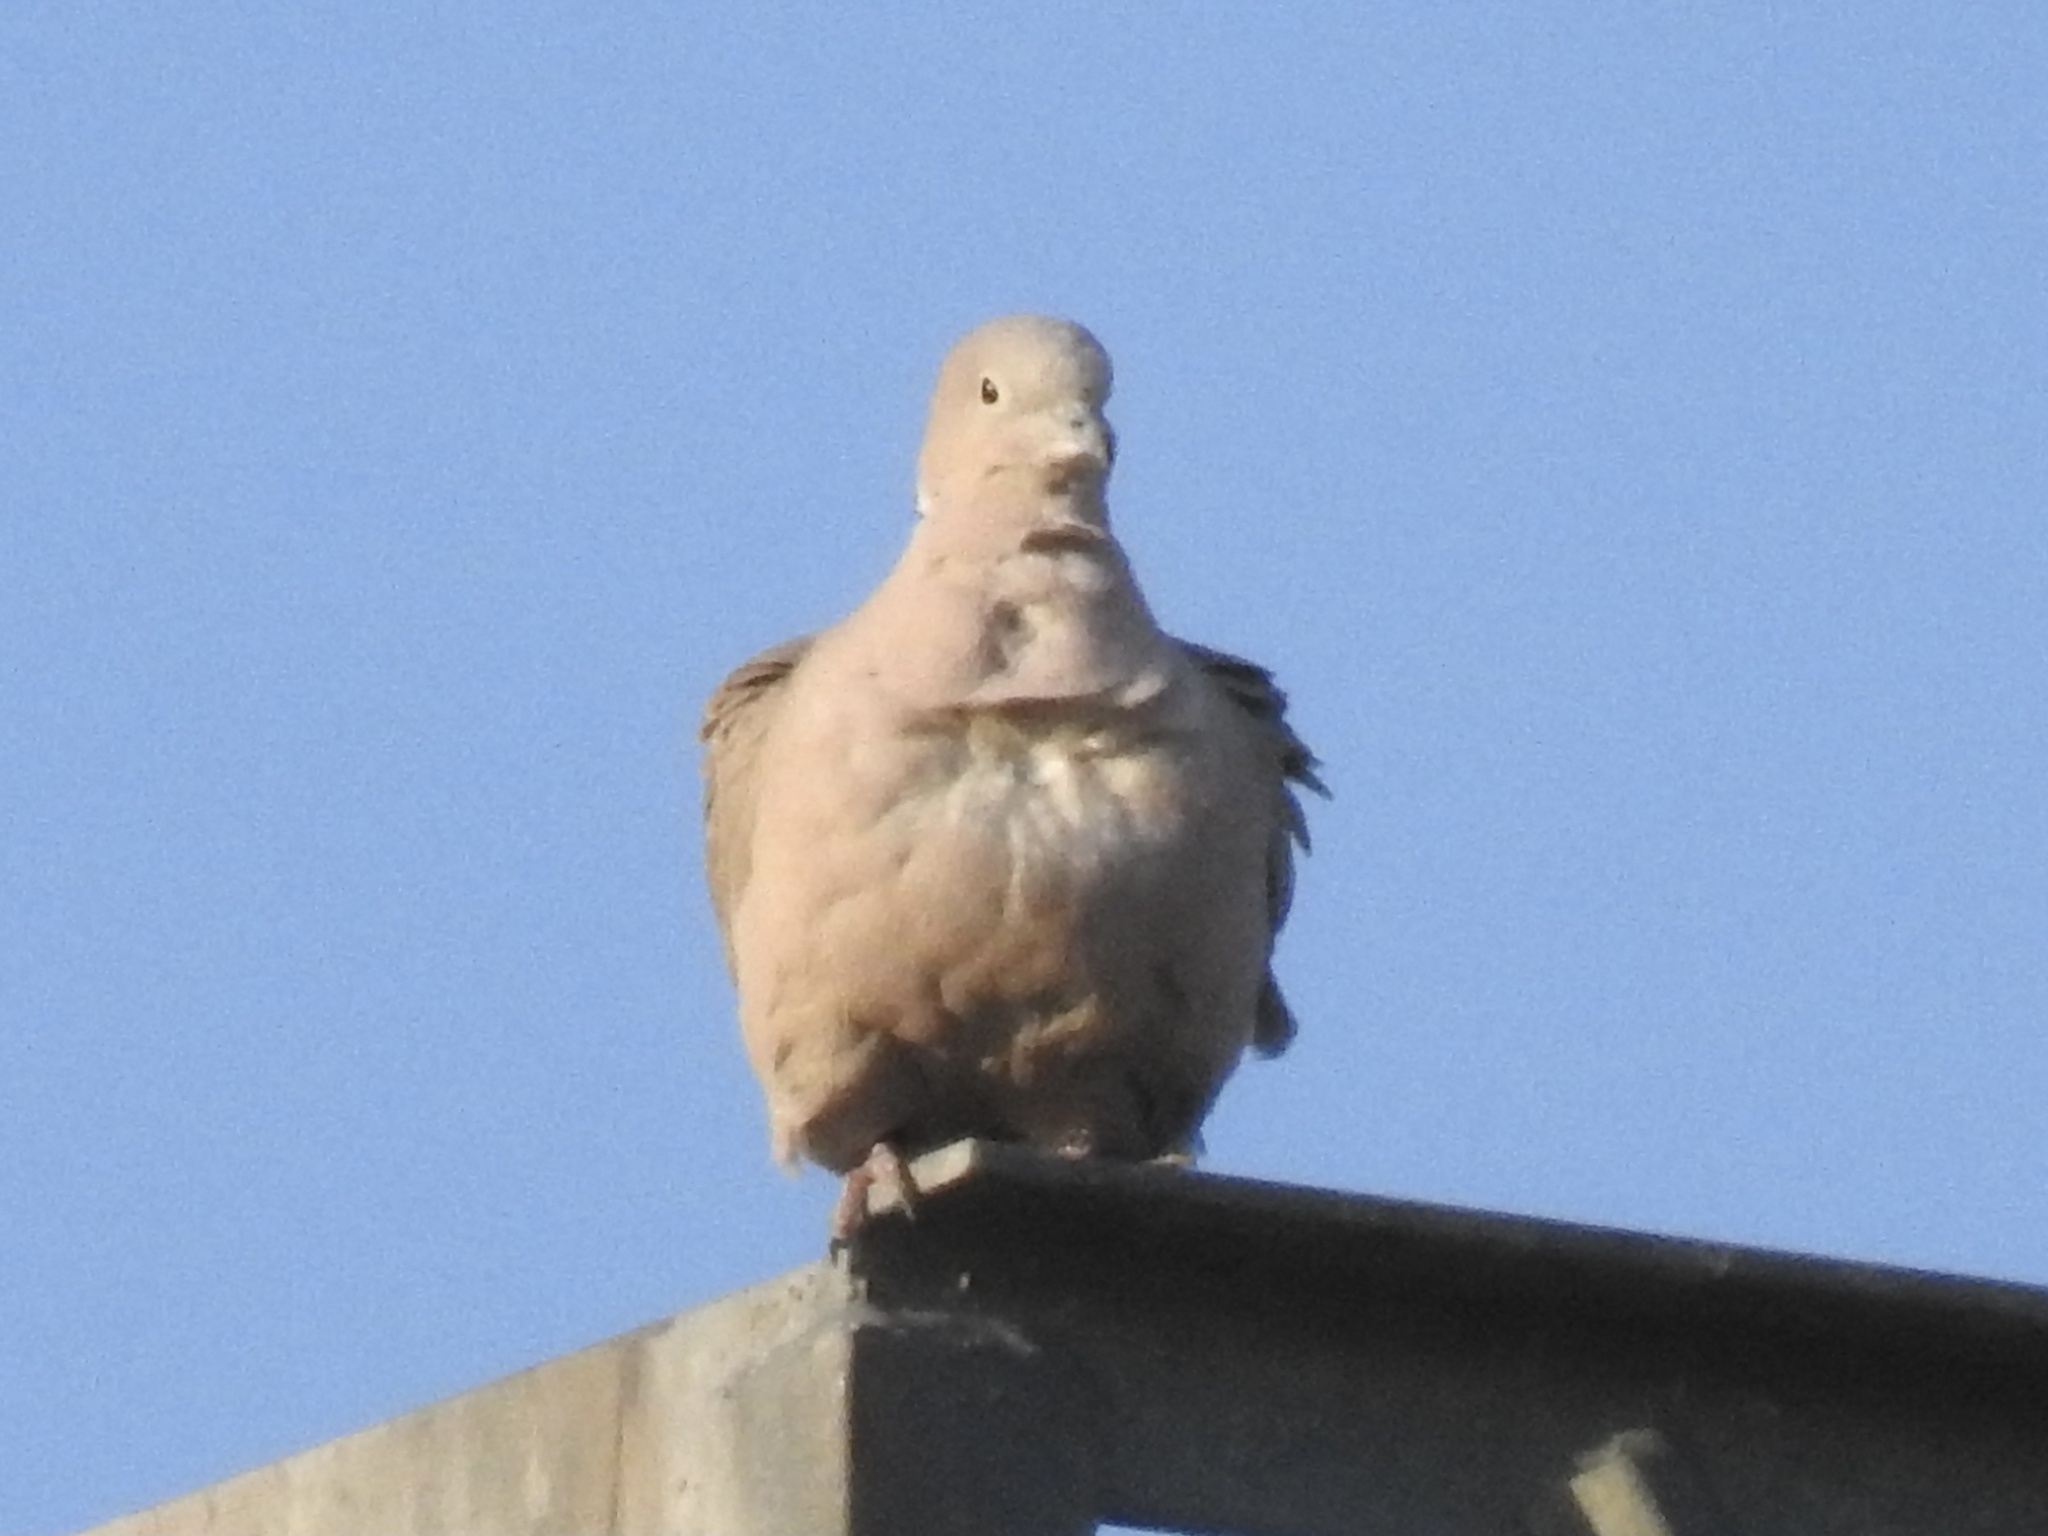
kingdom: Animalia
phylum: Chordata
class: Aves
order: Columbiformes
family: Columbidae
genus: Streptopelia
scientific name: Streptopelia decaocto
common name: Eurasian collared dove
